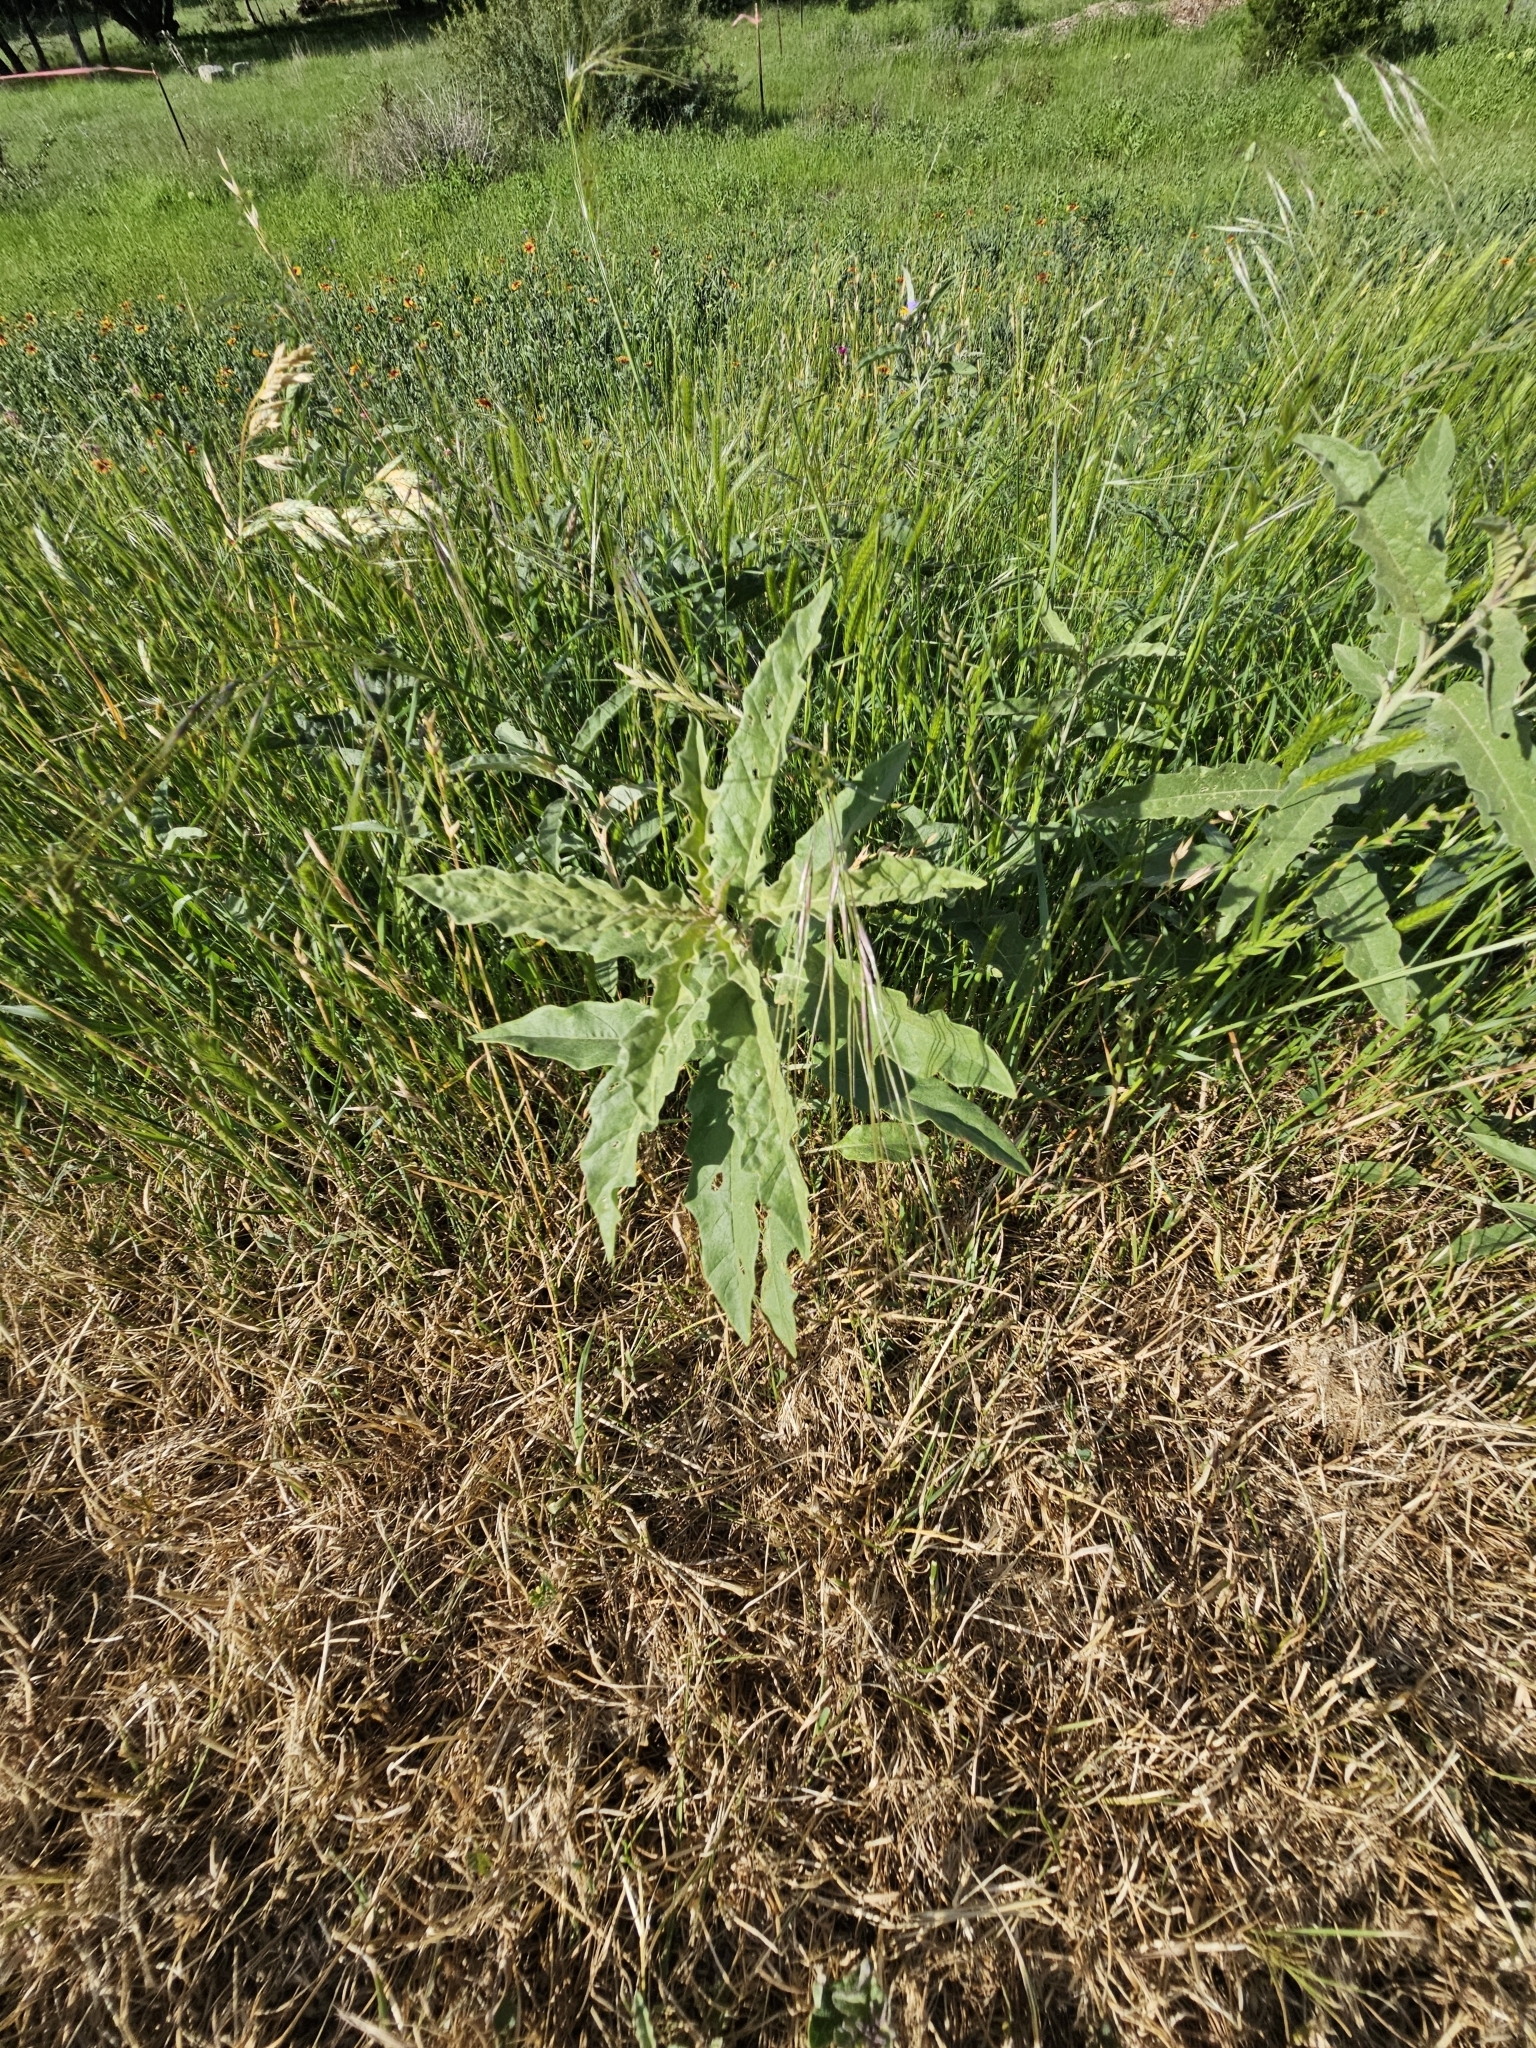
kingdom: Plantae
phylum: Tracheophyta
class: Magnoliopsida
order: Solanales
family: Solanaceae
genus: Solanum
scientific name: Solanum elaeagnifolium
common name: Silverleaf nightshade
